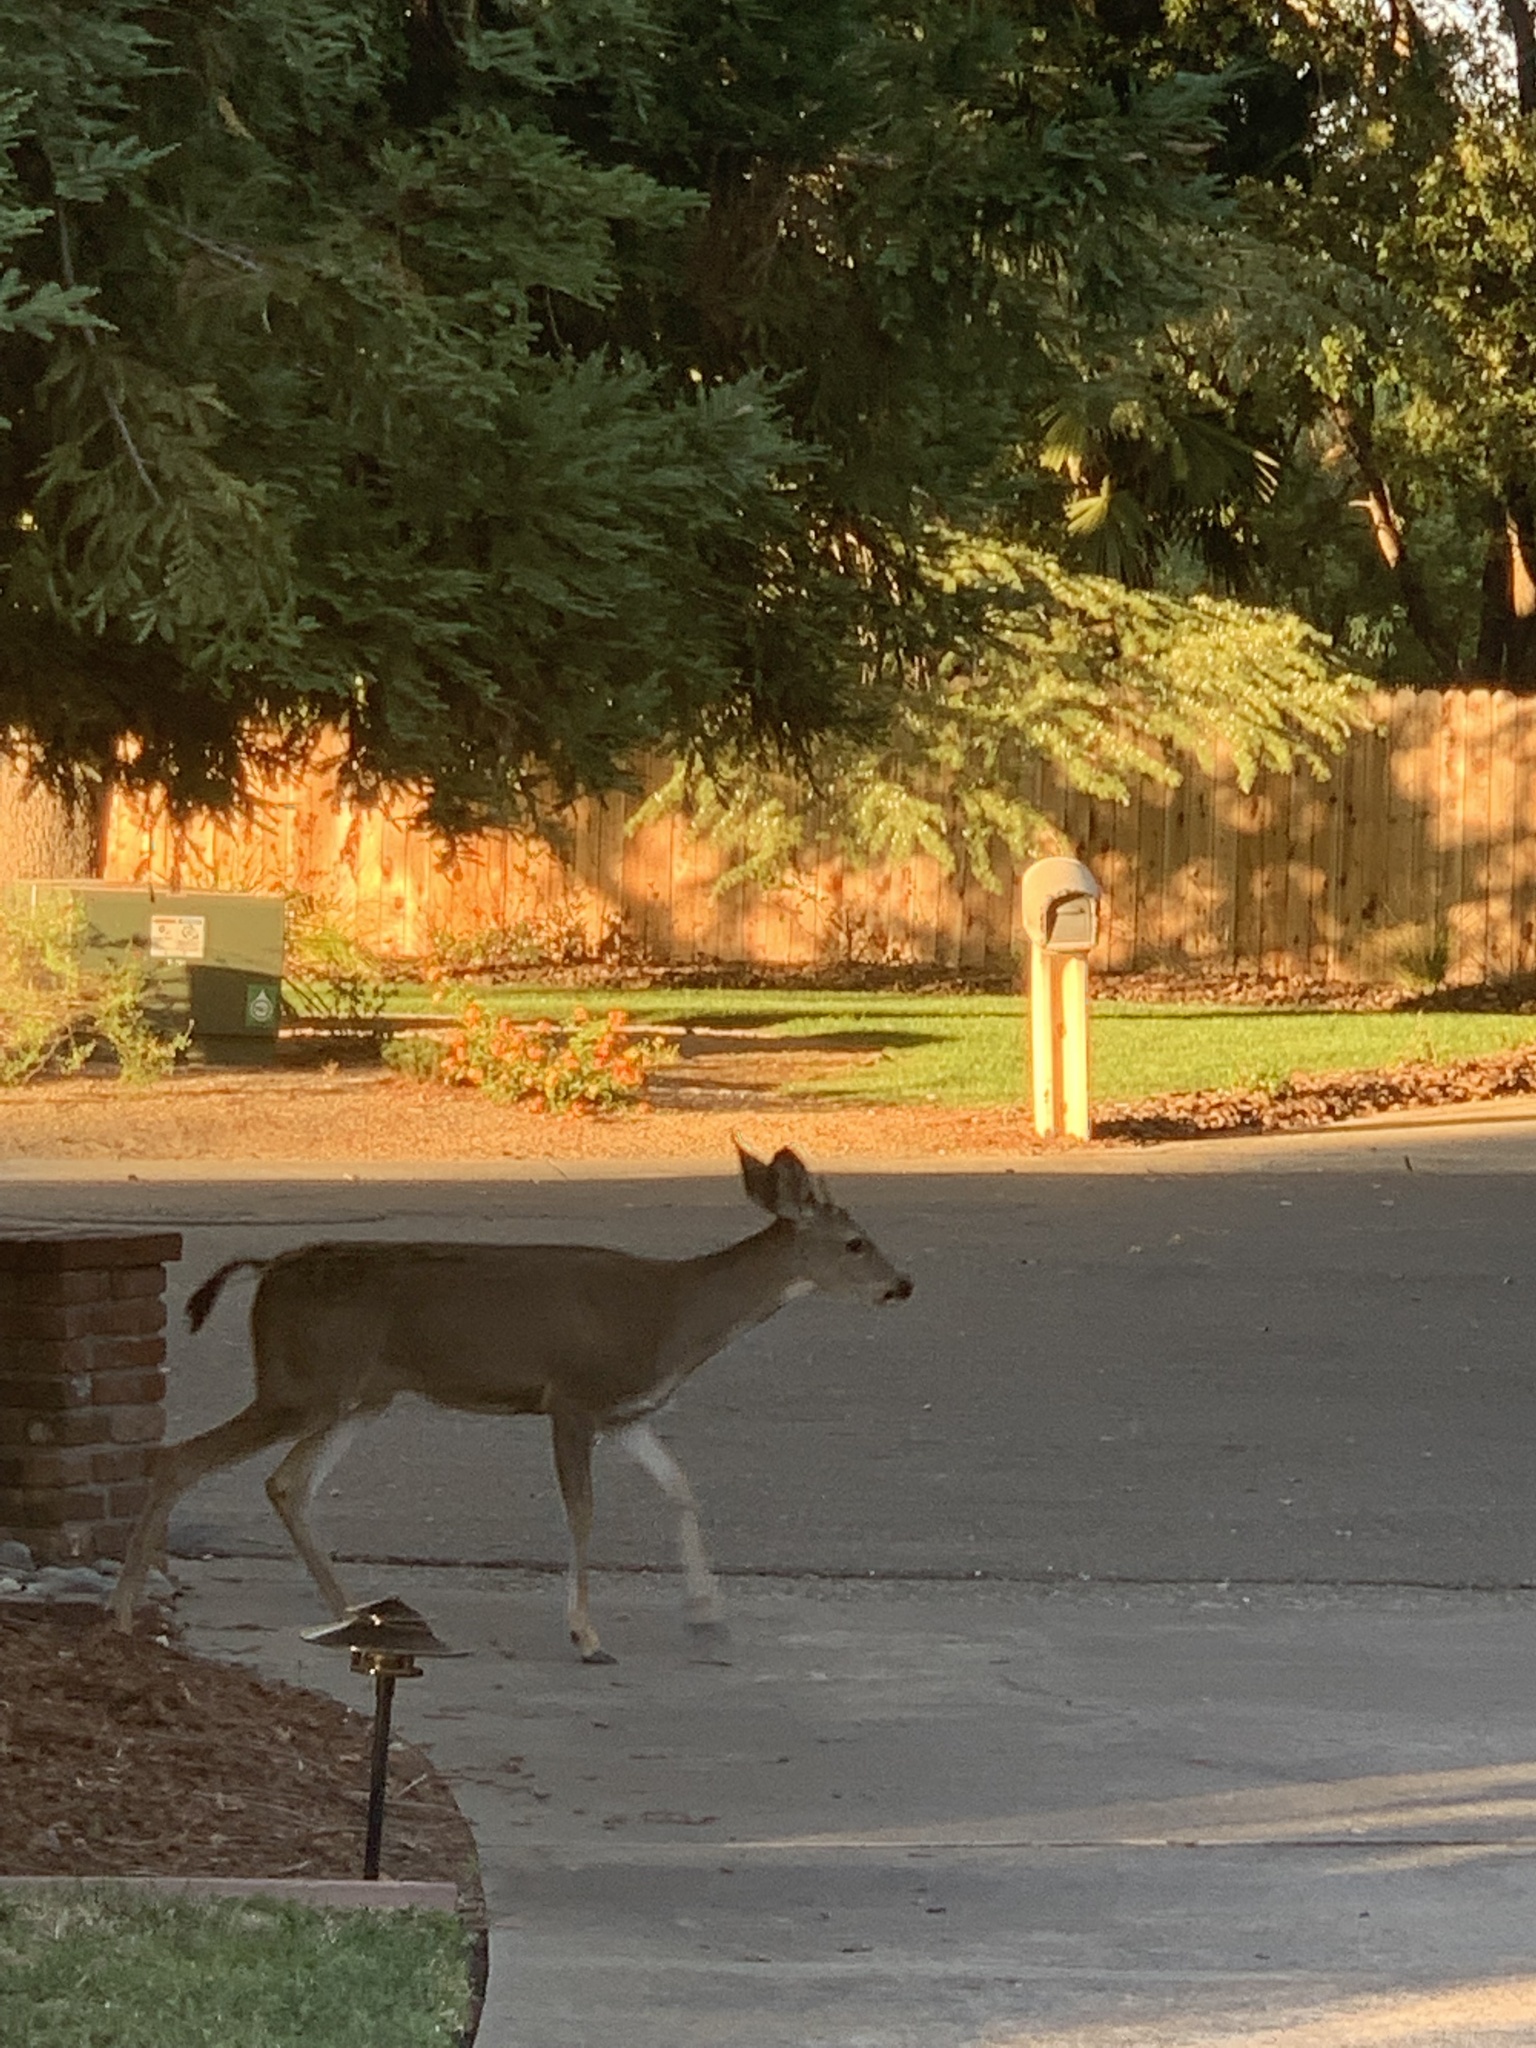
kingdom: Animalia
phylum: Chordata
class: Mammalia
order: Artiodactyla
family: Cervidae
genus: Odocoileus
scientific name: Odocoileus hemionus
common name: Mule deer
